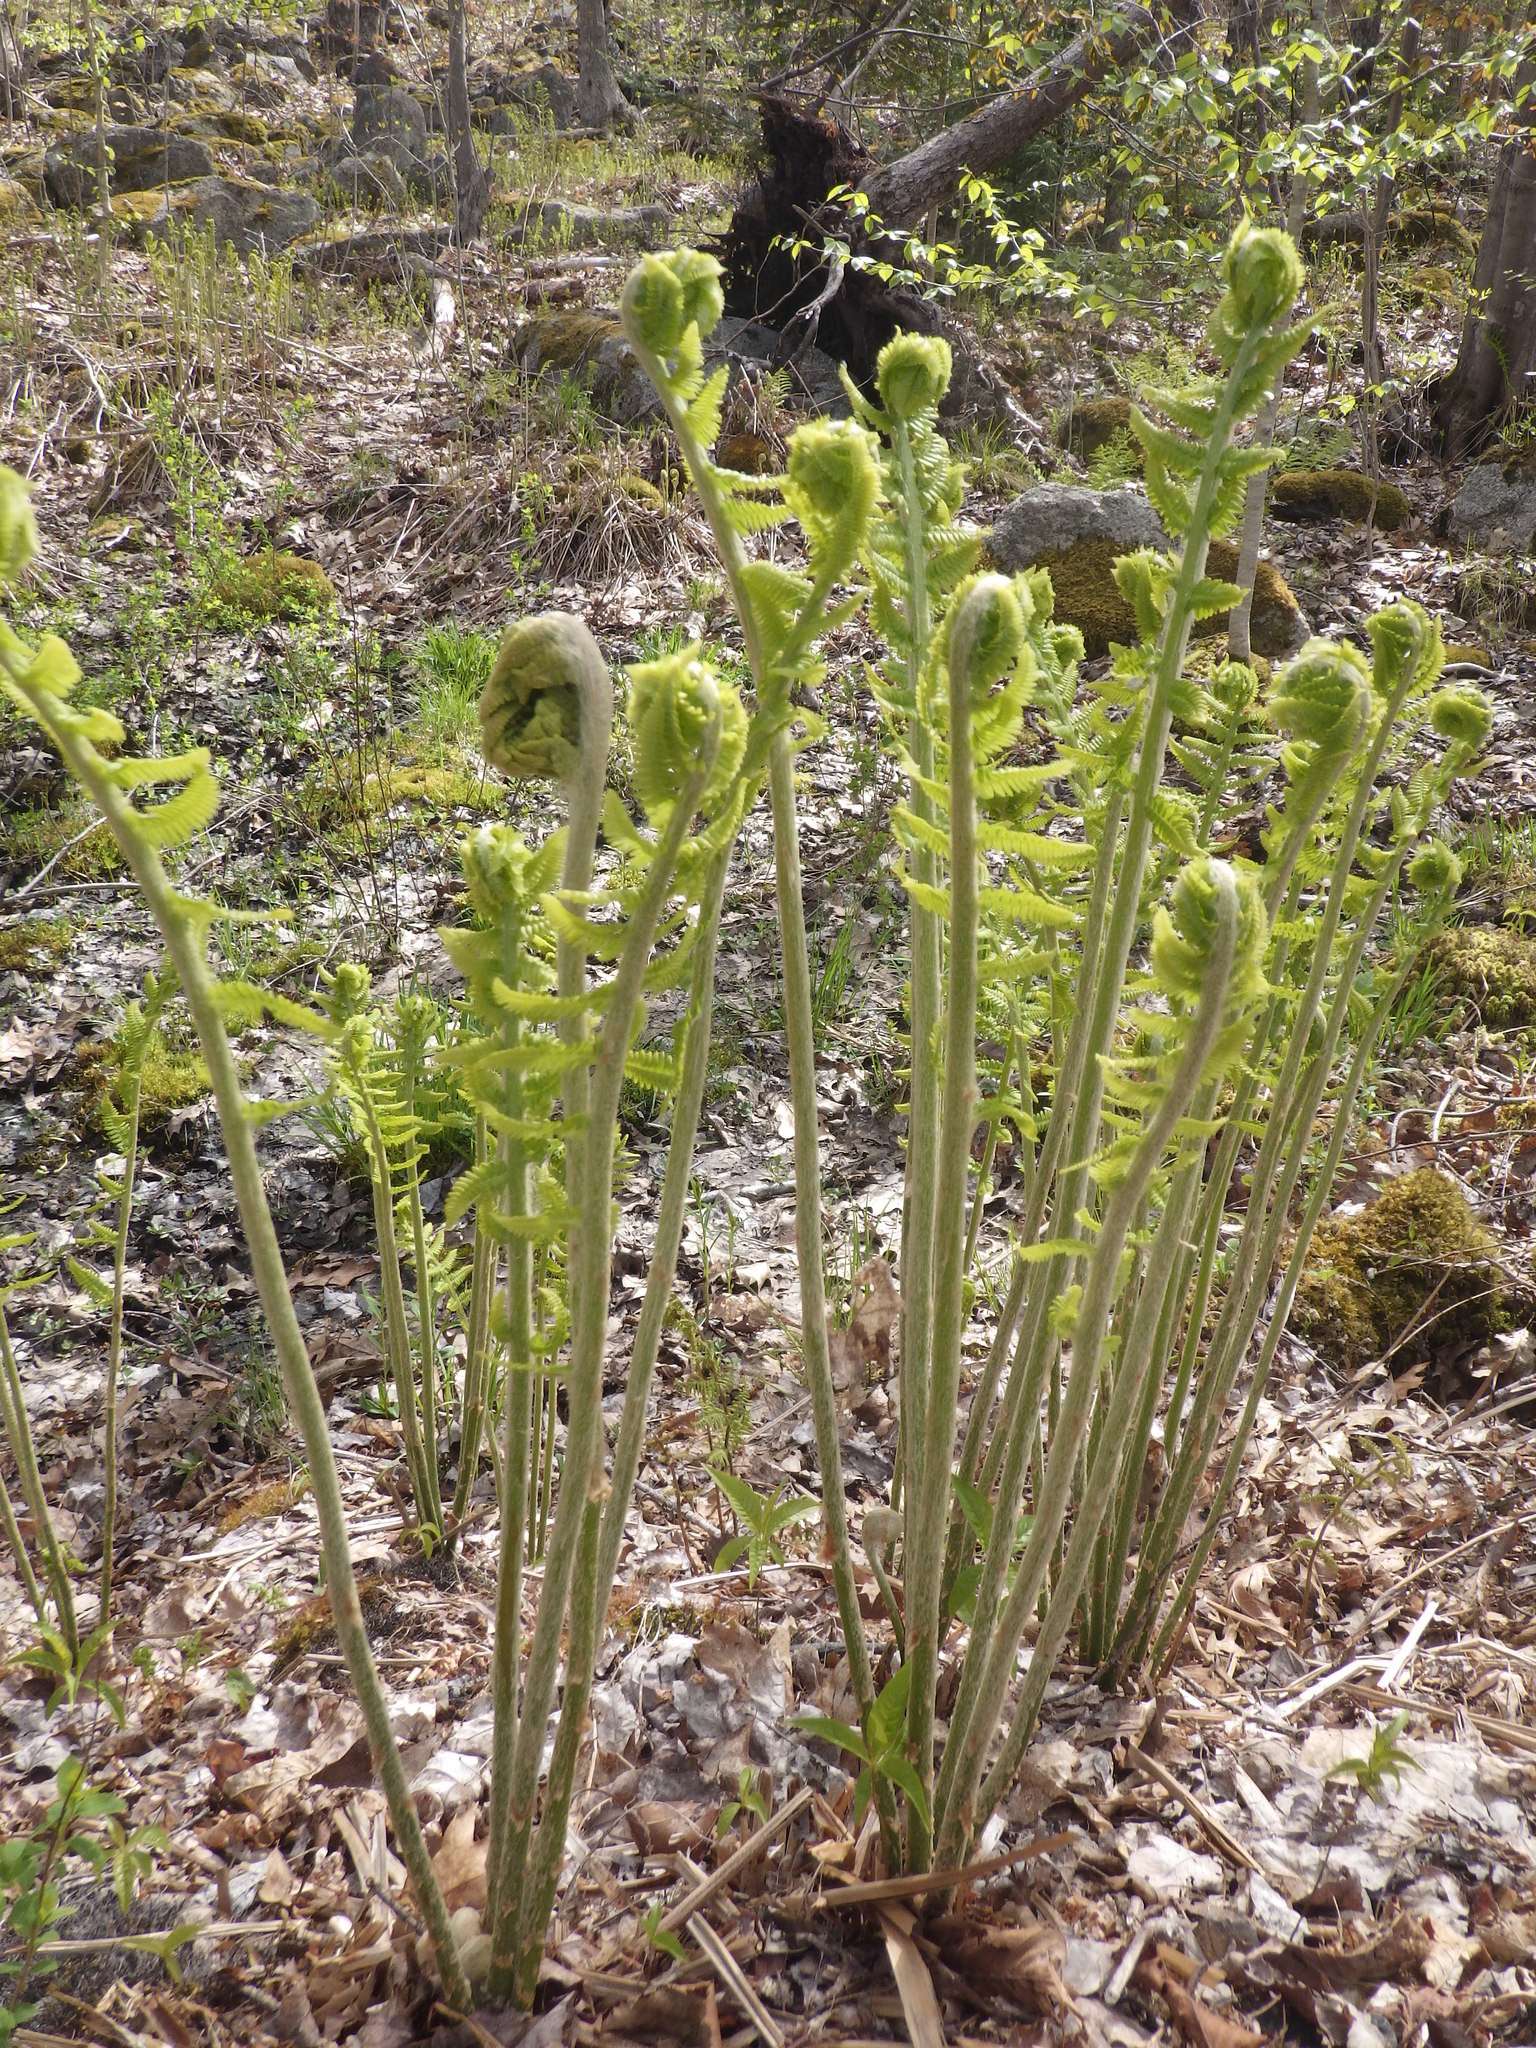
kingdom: Plantae
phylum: Tracheophyta
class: Polypodiopsida
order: Osmundales
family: Osmundaceae
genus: Osmundastrum
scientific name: Osmundastrum cinnamomeum
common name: Cinnamon fern
